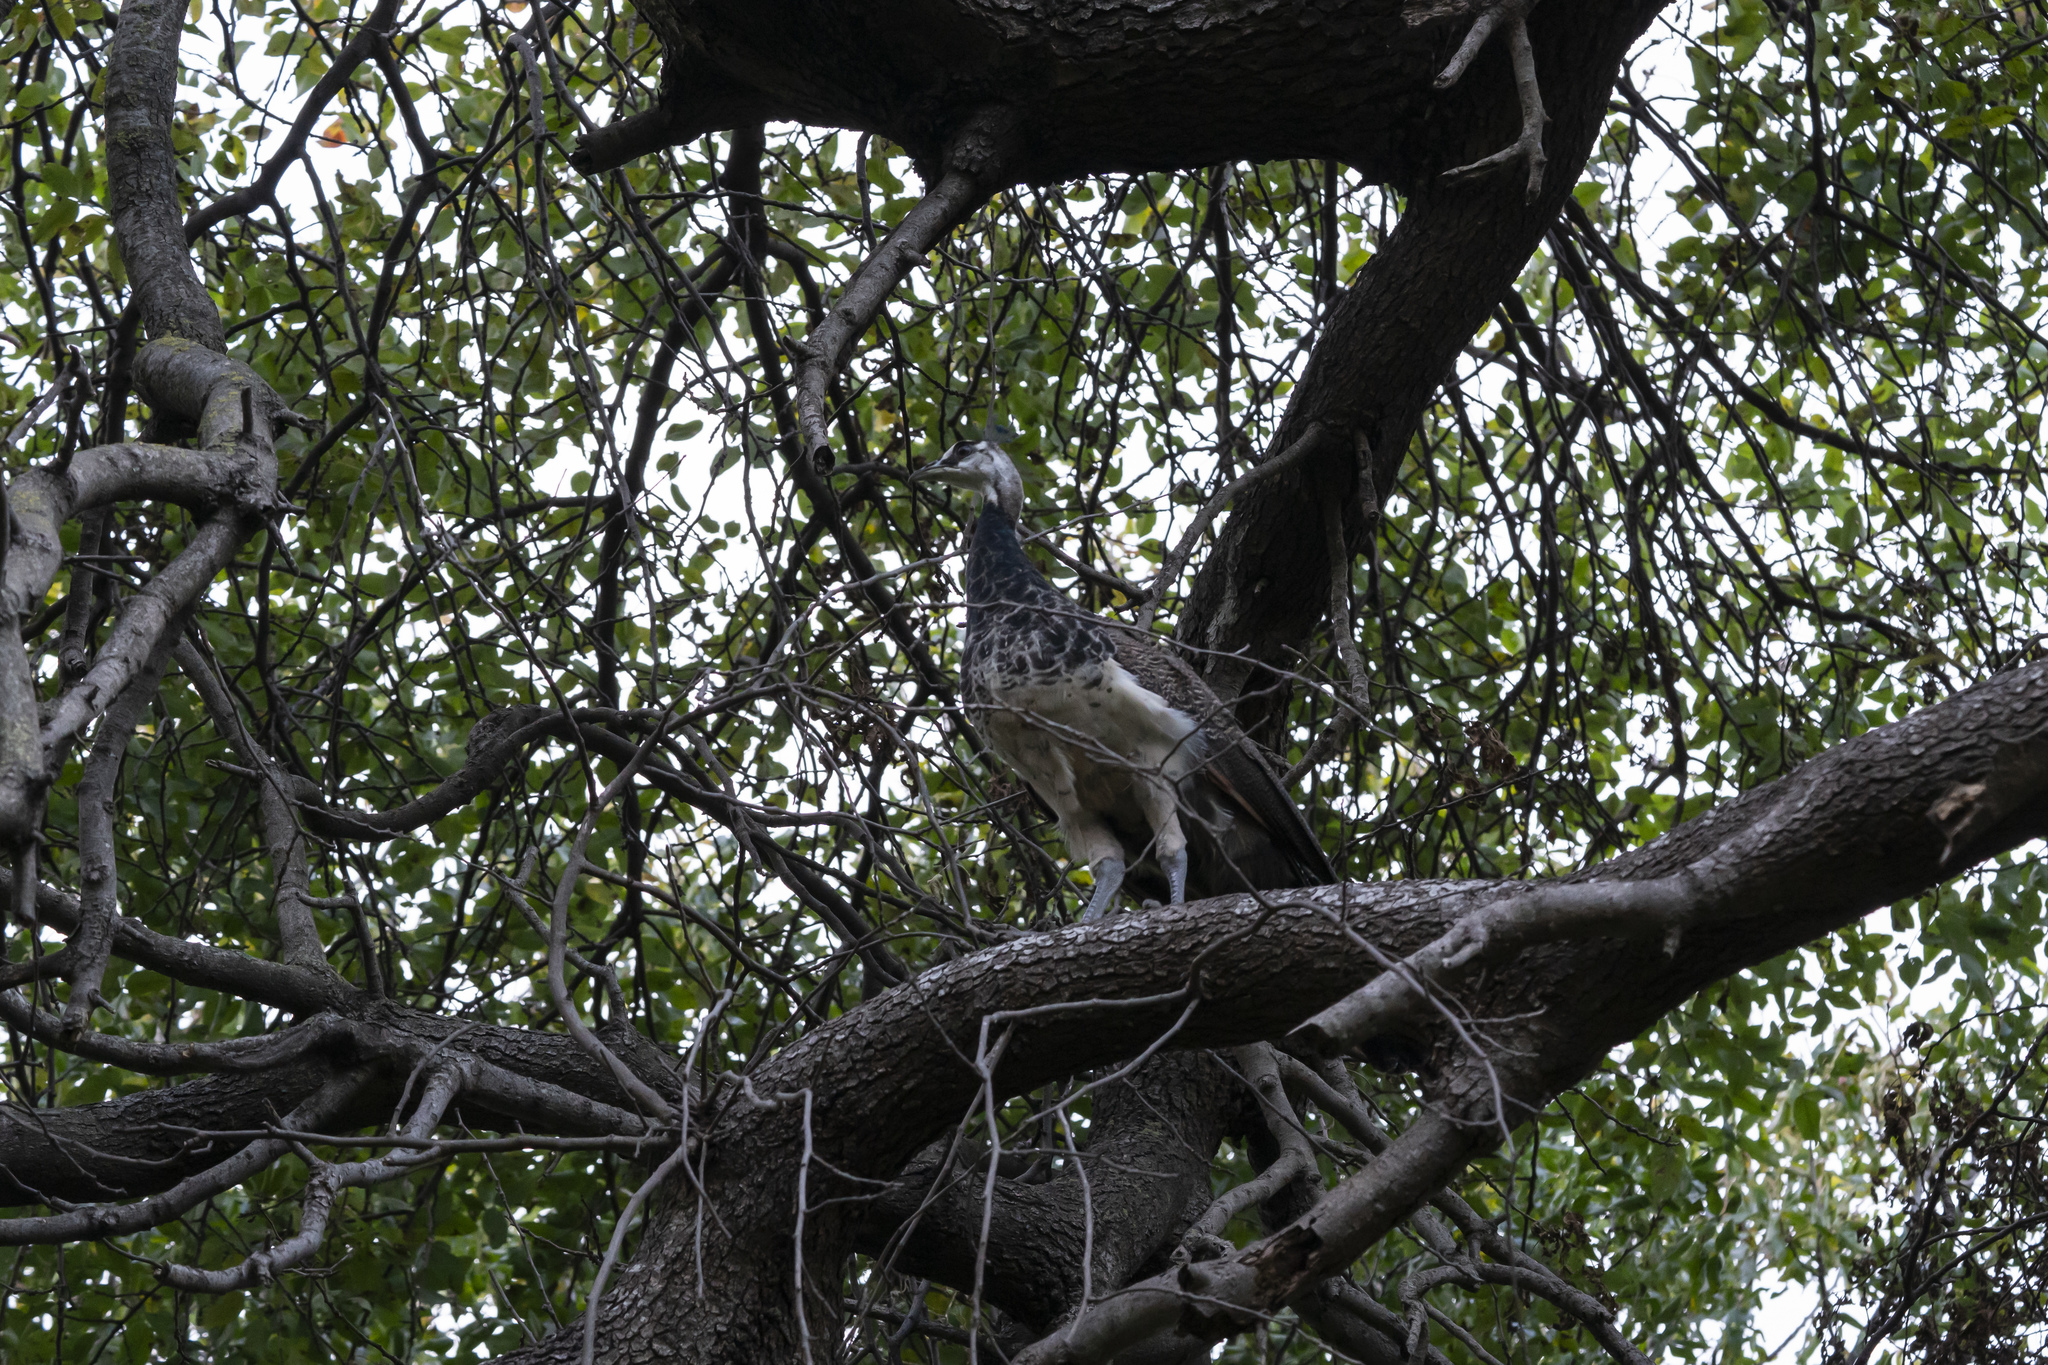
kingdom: Animalia
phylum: Chordata
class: Aves
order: Galliformes
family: Phasianidae
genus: Pavo
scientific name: Pavo cristatus
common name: Indian peafowl
